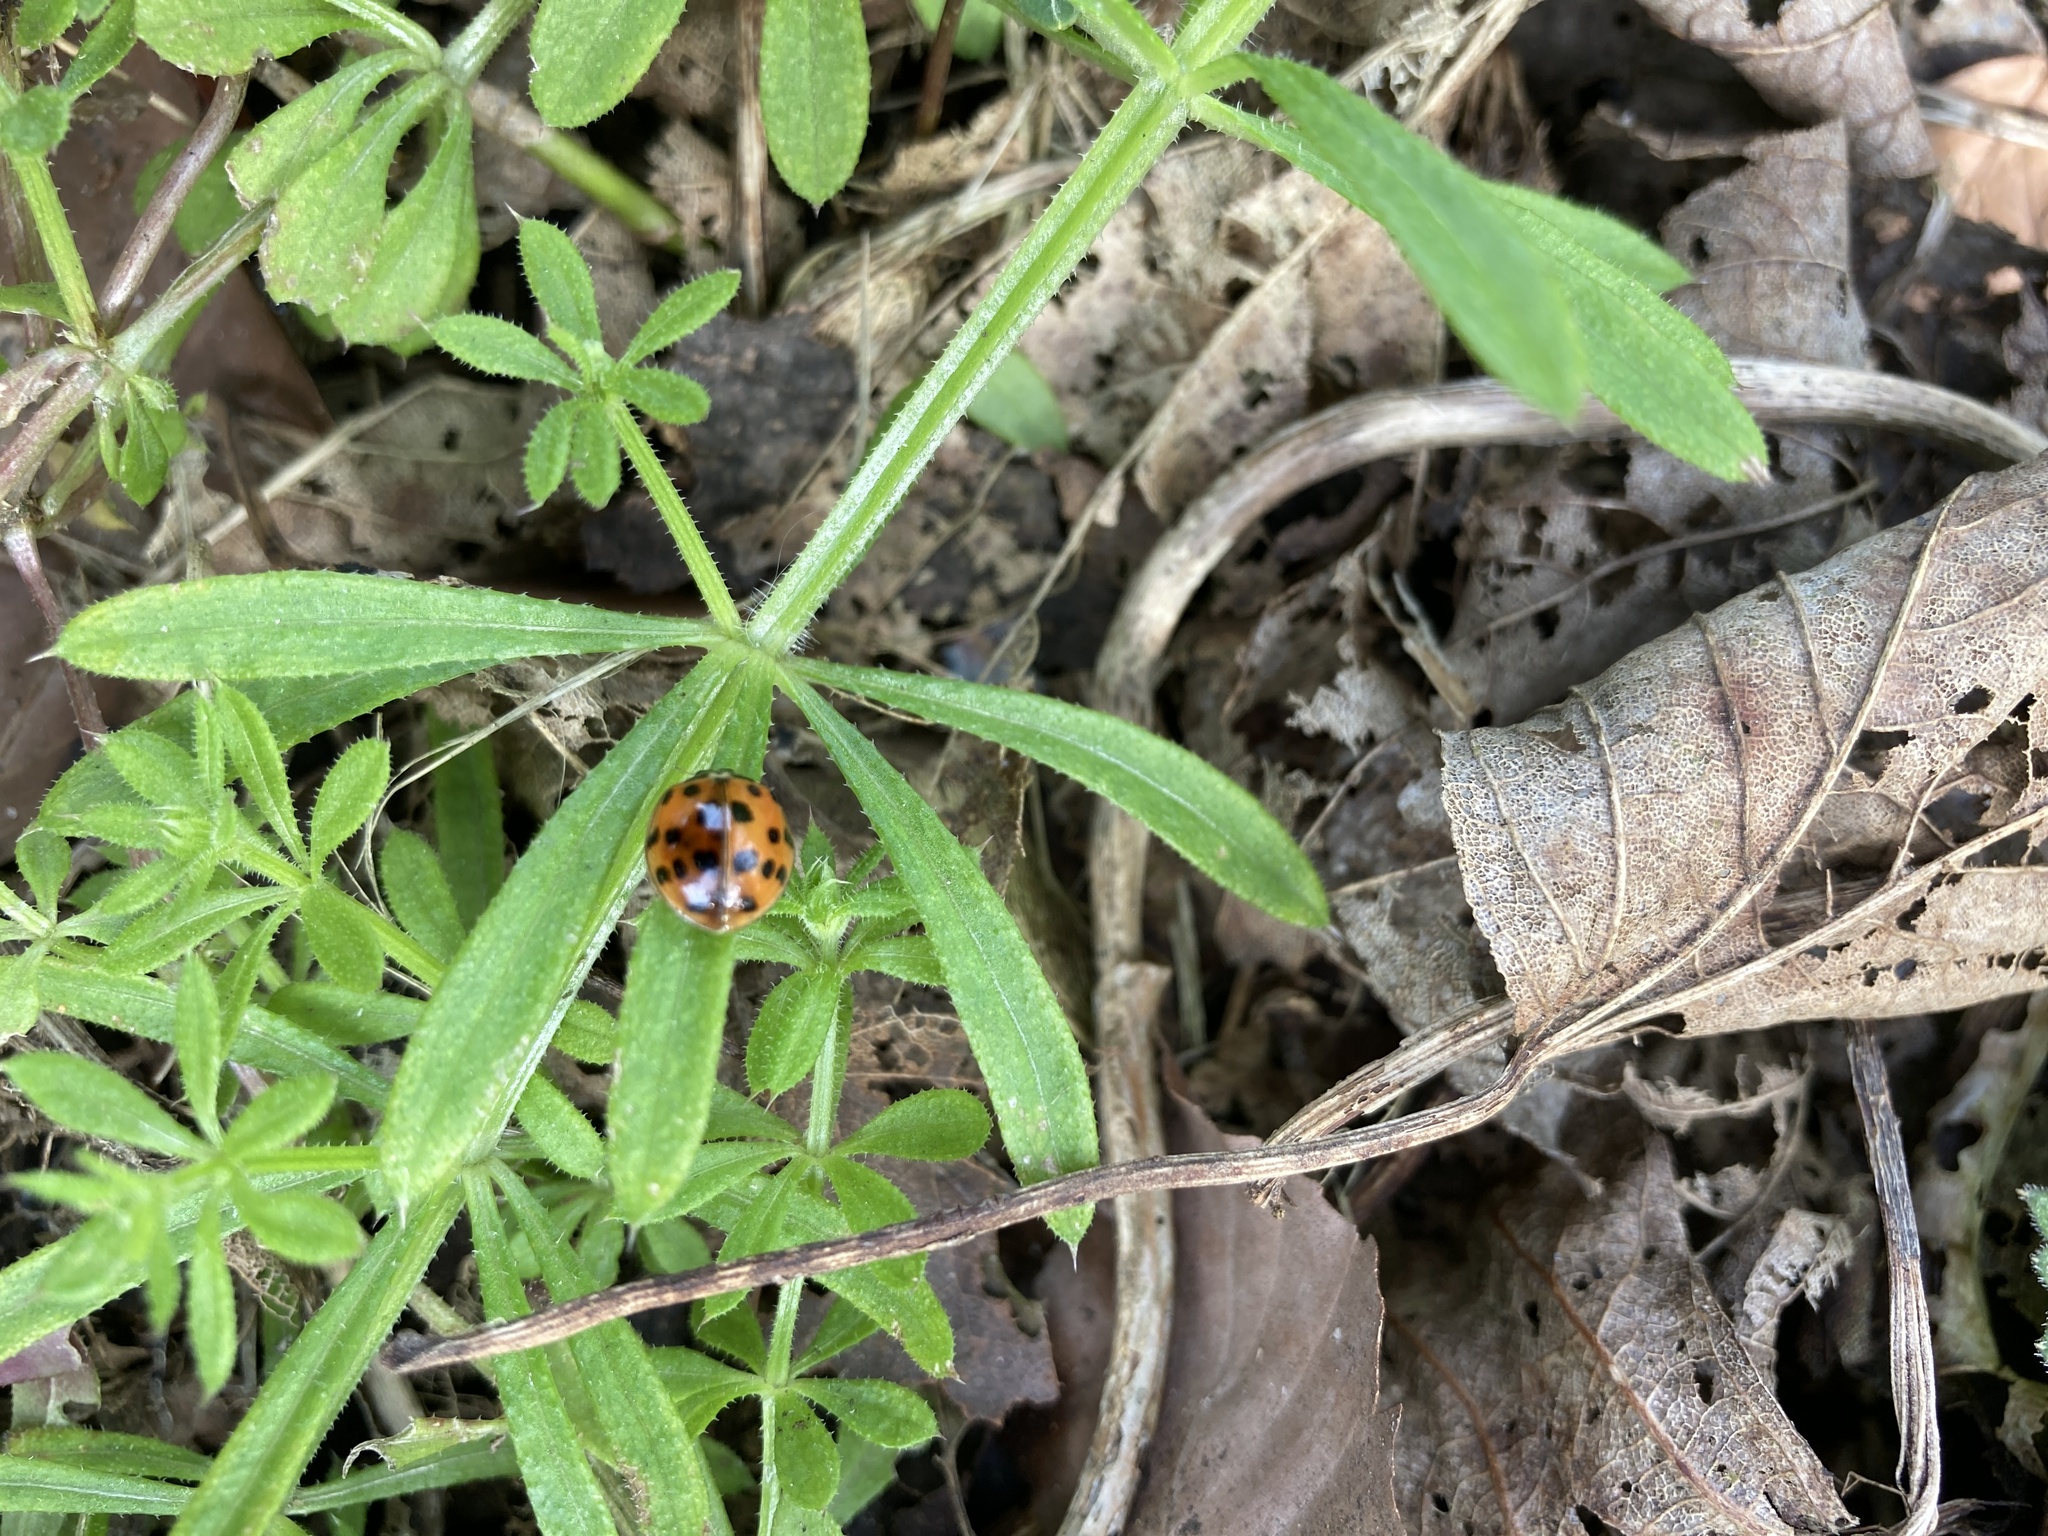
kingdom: Animalia
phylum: Arthropoda
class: Insecta
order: Coleoptera
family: Coccinellidae
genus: Harmonia
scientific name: Harmonia axyridis
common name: Harlequin ladybird
